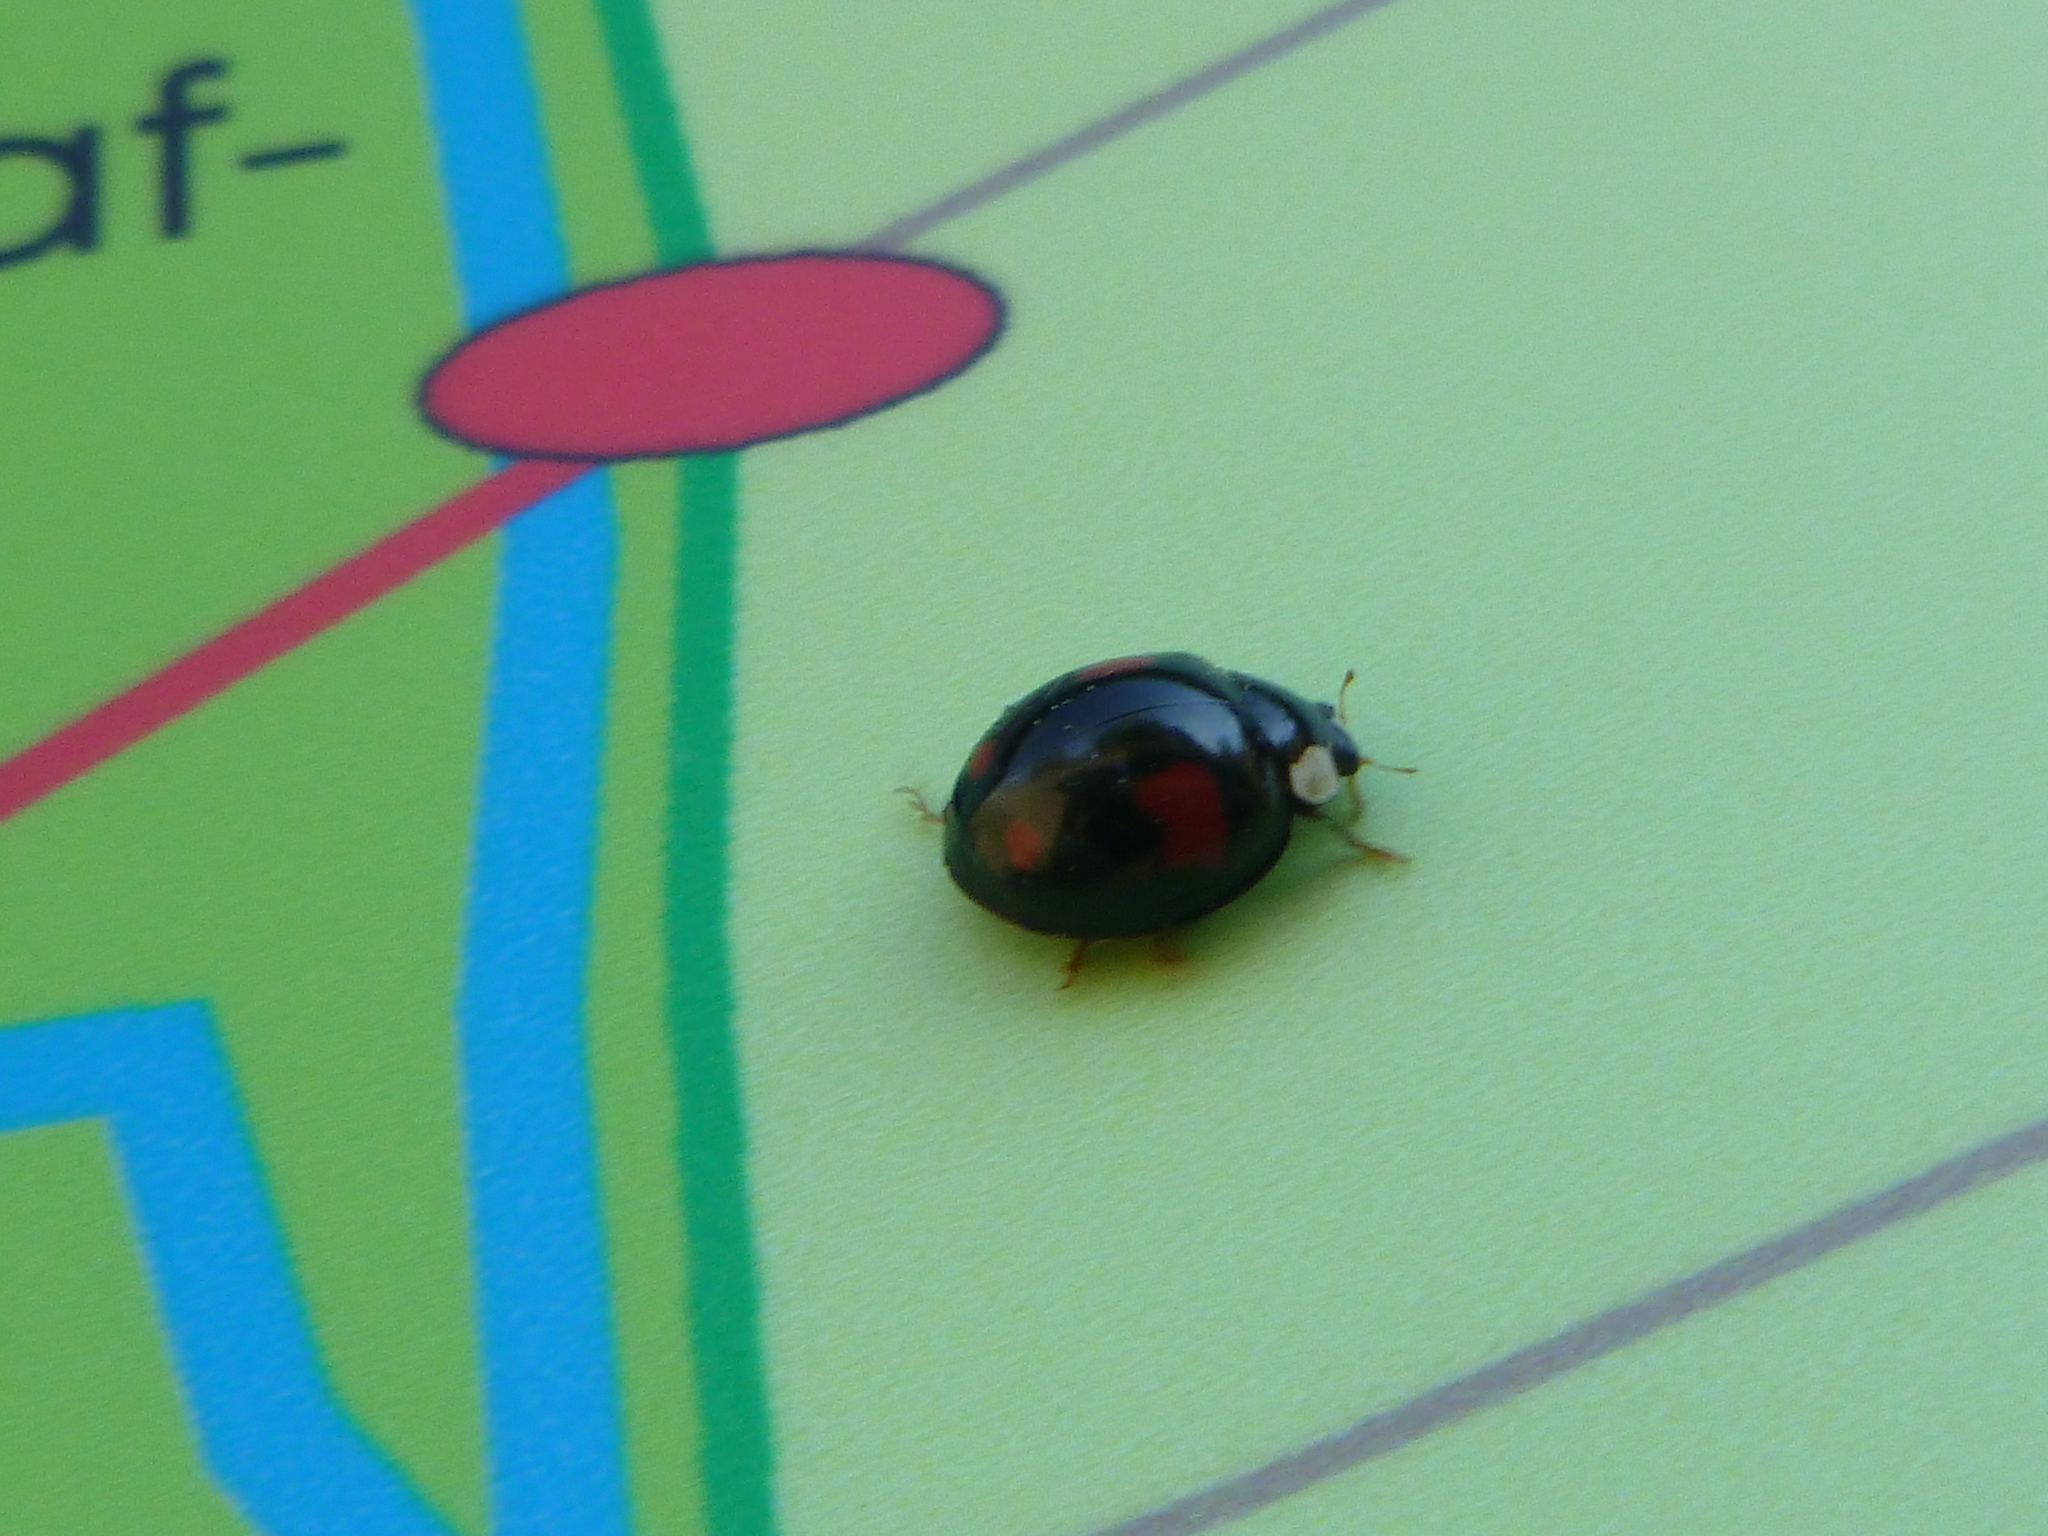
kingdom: Animalia
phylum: Arthropoda
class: Insecta
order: Coleoptera
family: Coccinellidae
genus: Harmonia
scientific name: Harmonia axyridis
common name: Harlequin ladybird
